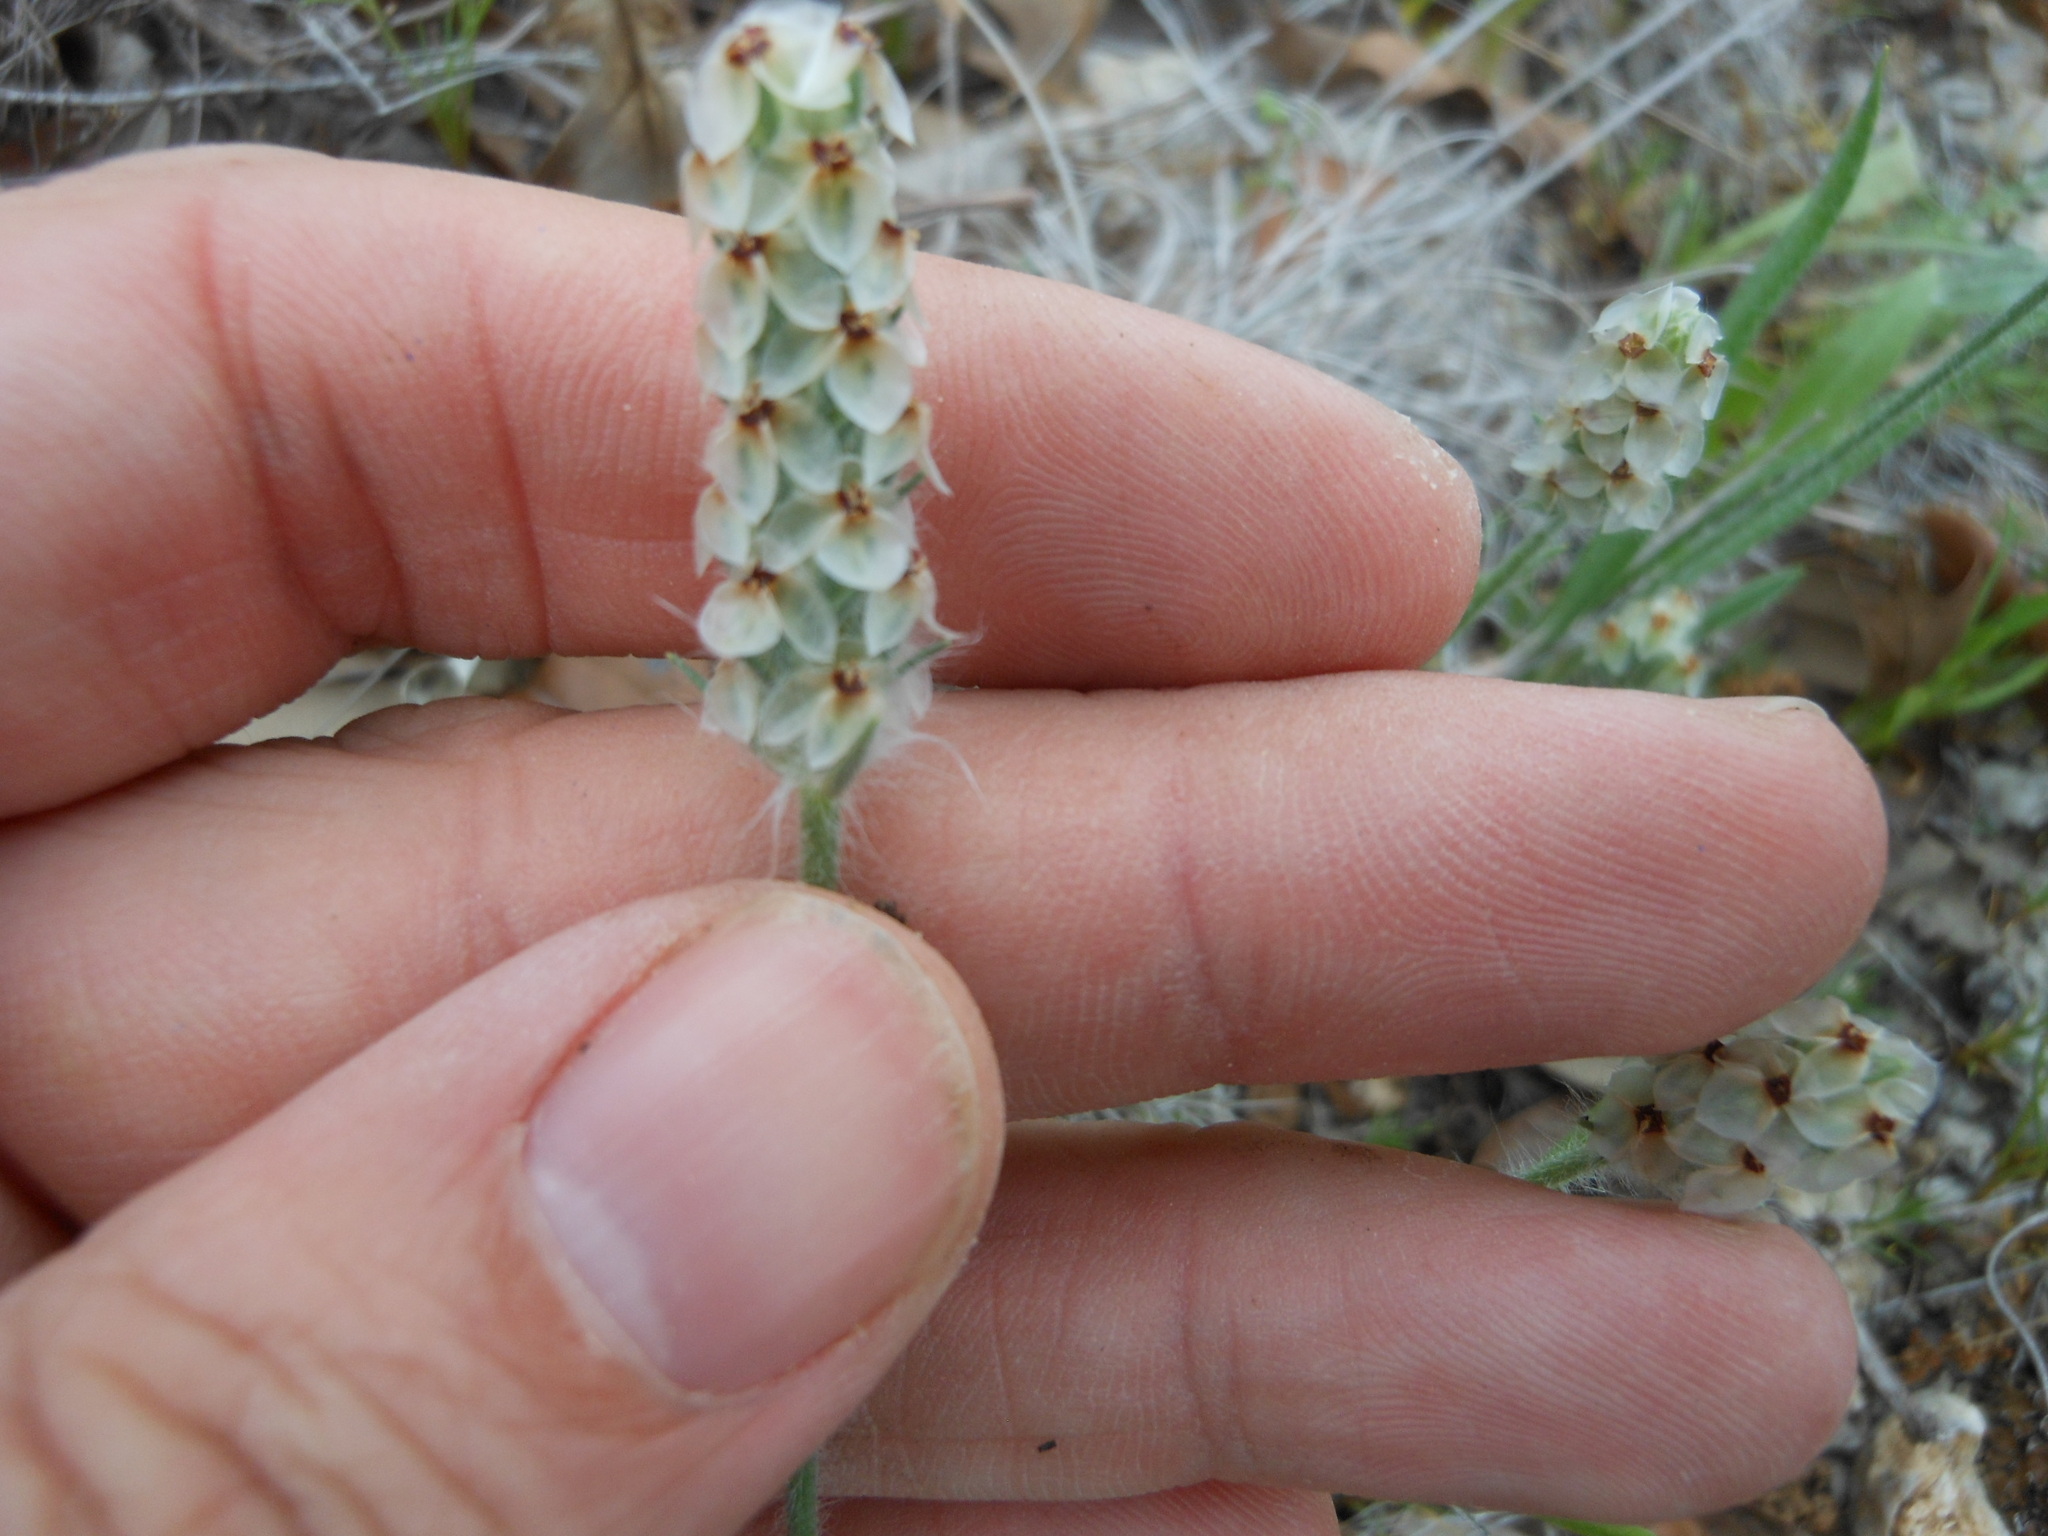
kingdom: Plantae
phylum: Tracheophyta
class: Magnoliopsida
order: Lamiales
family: Plantaginaceae
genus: Plantago
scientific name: Plantago helleri
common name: Heller's plantain
